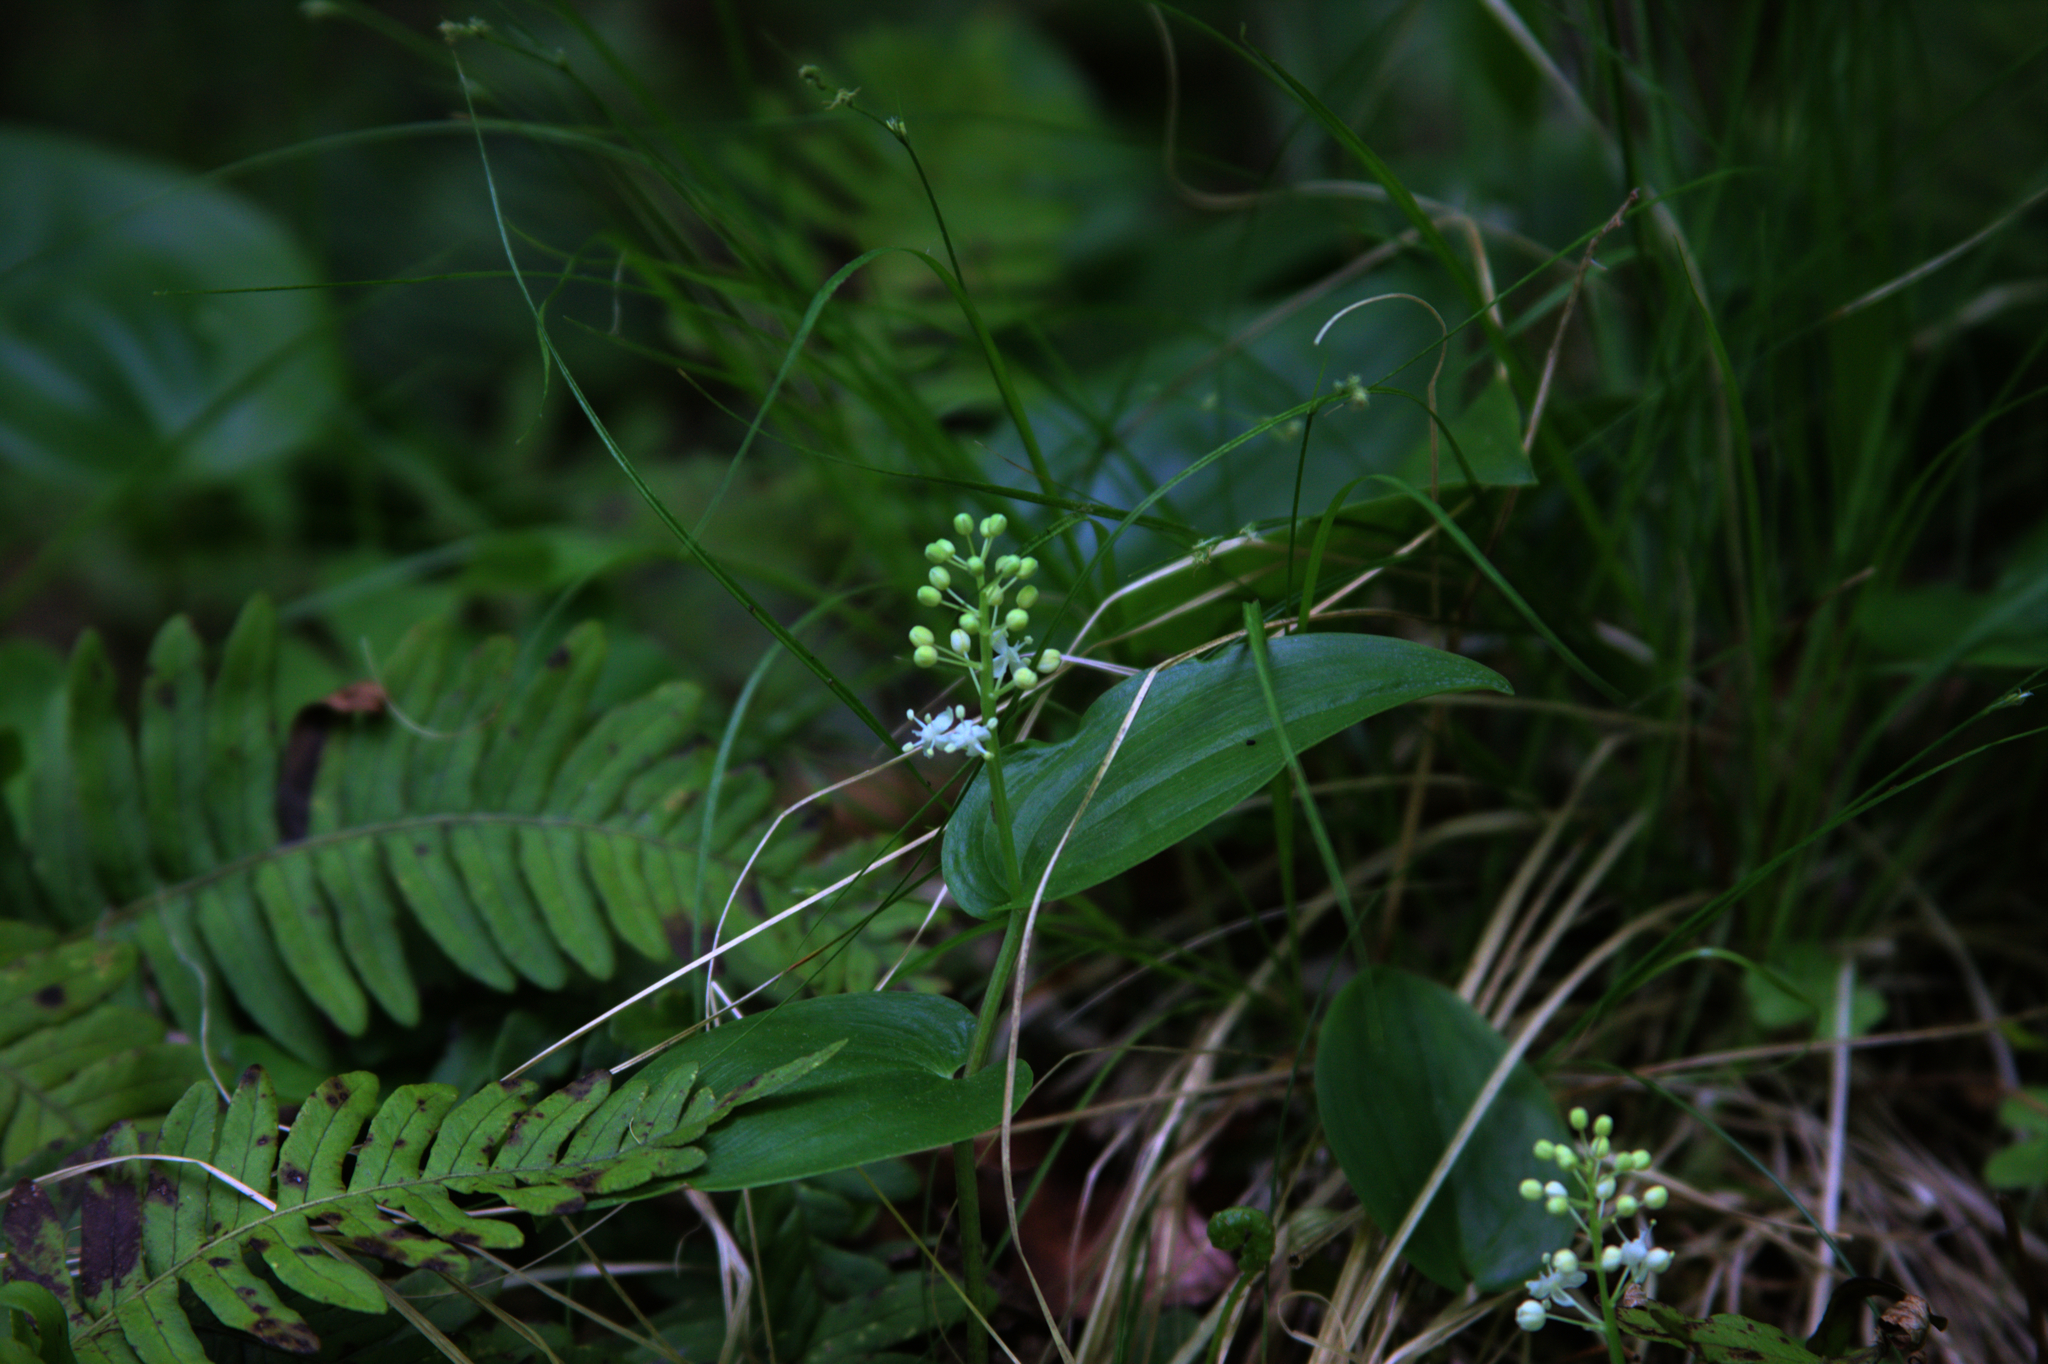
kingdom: Plantae
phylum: Tracheophyta
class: Liliopsida
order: Asparagales
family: Asparagaceae
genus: Maianthemum
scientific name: Maianthemum canadense
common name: False lily-of-the-valley
